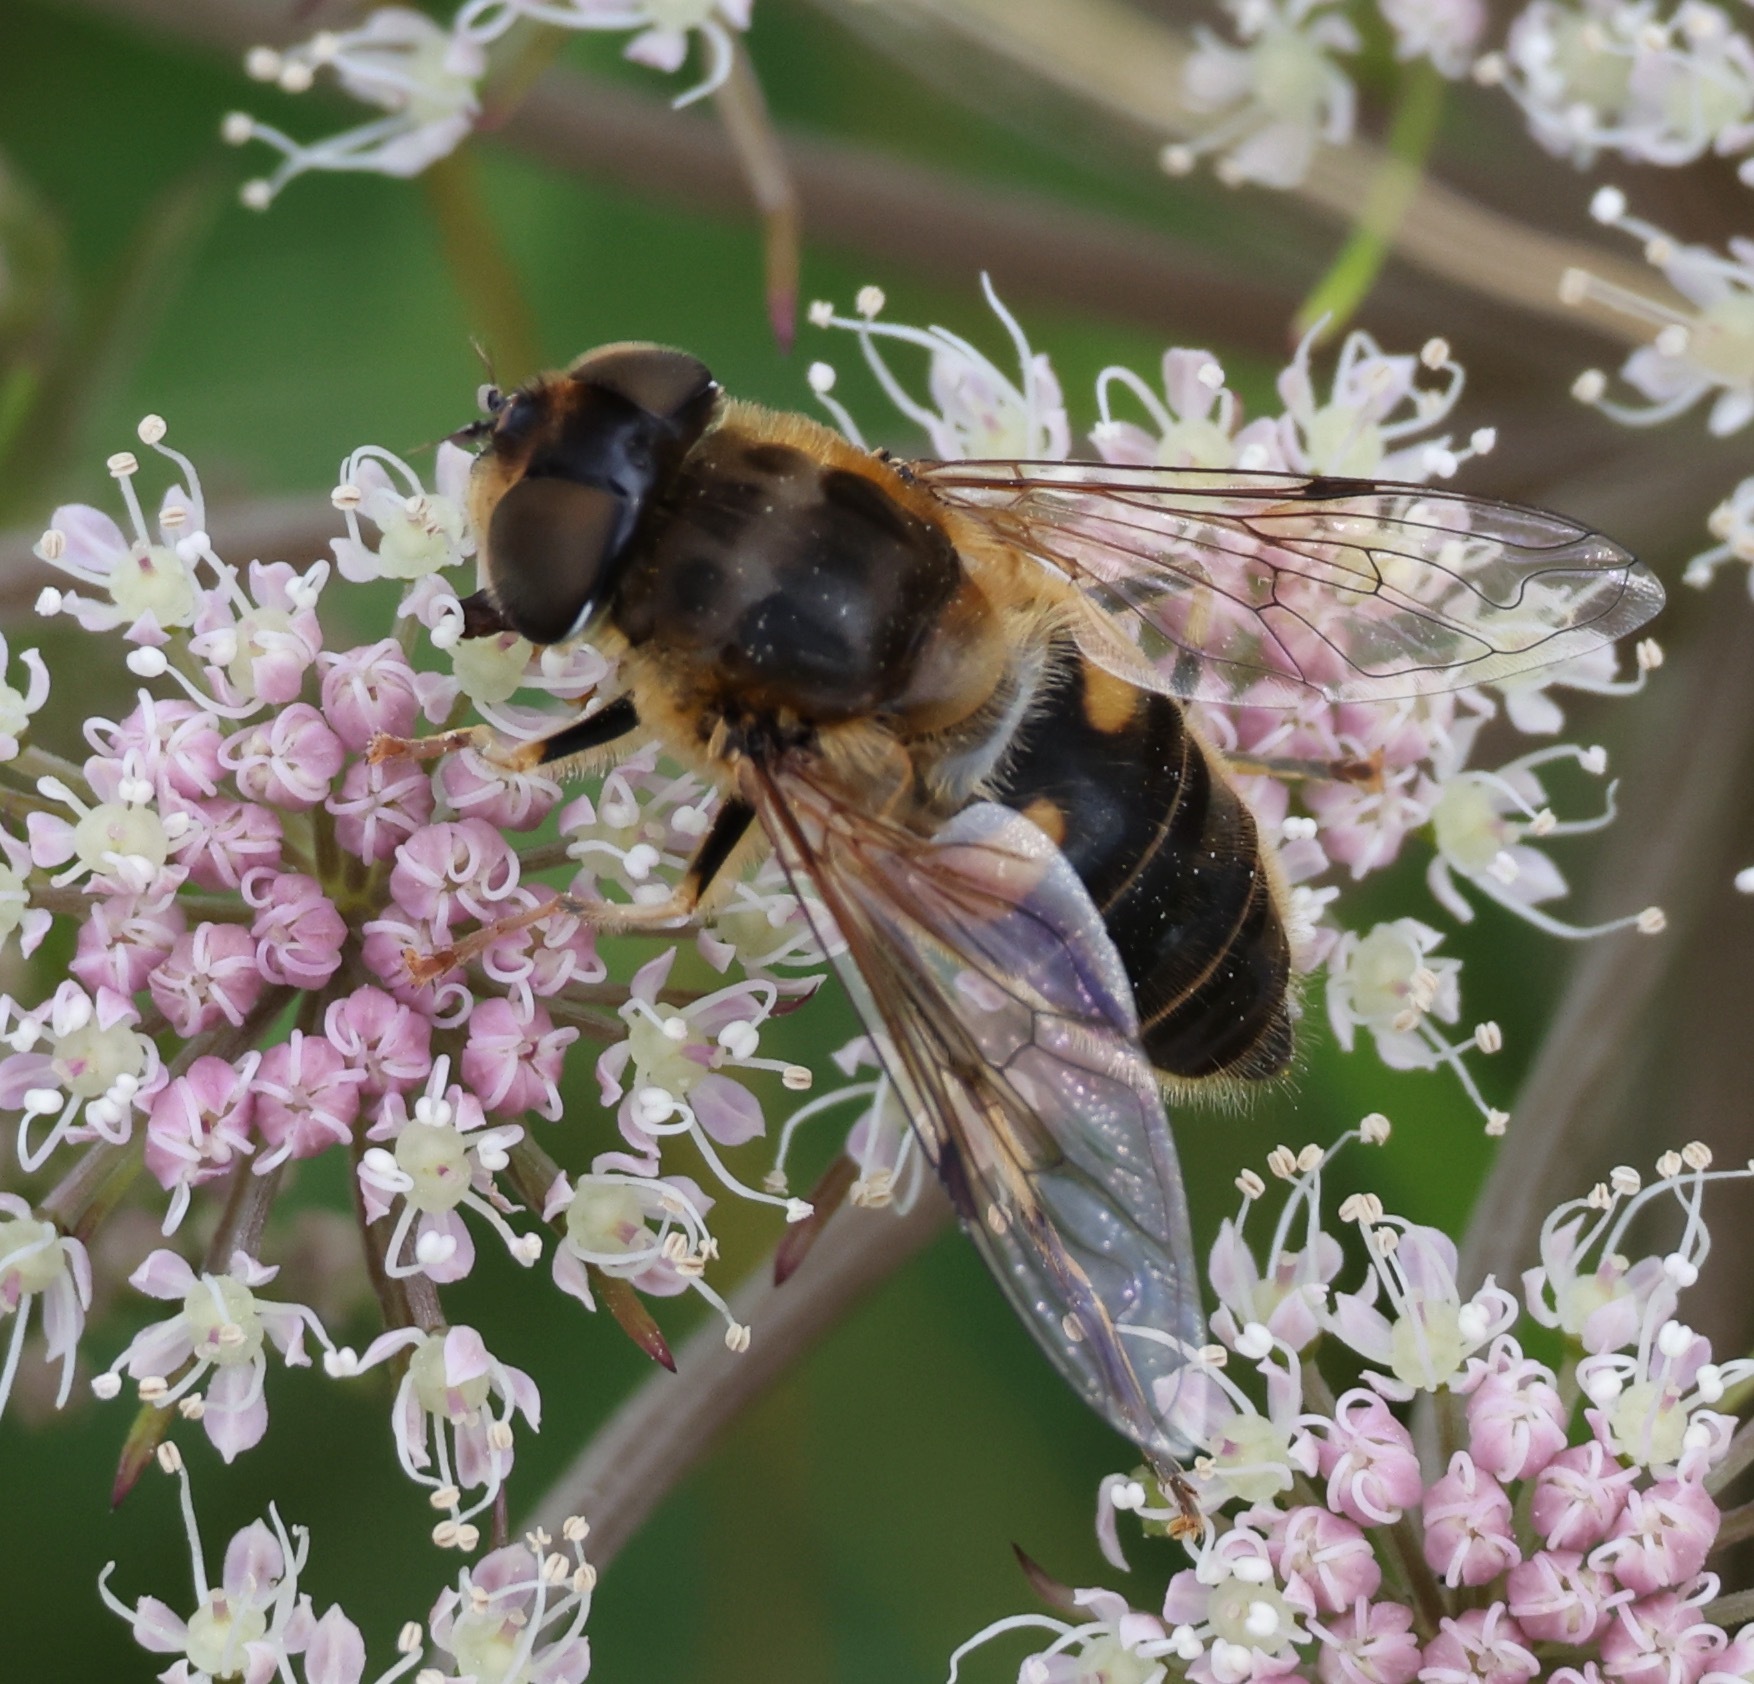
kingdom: Animalia
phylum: Arthropoda
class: Insecta
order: Diptera
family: Syrphidae
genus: Eristalis
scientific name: Eristalis pertinax
